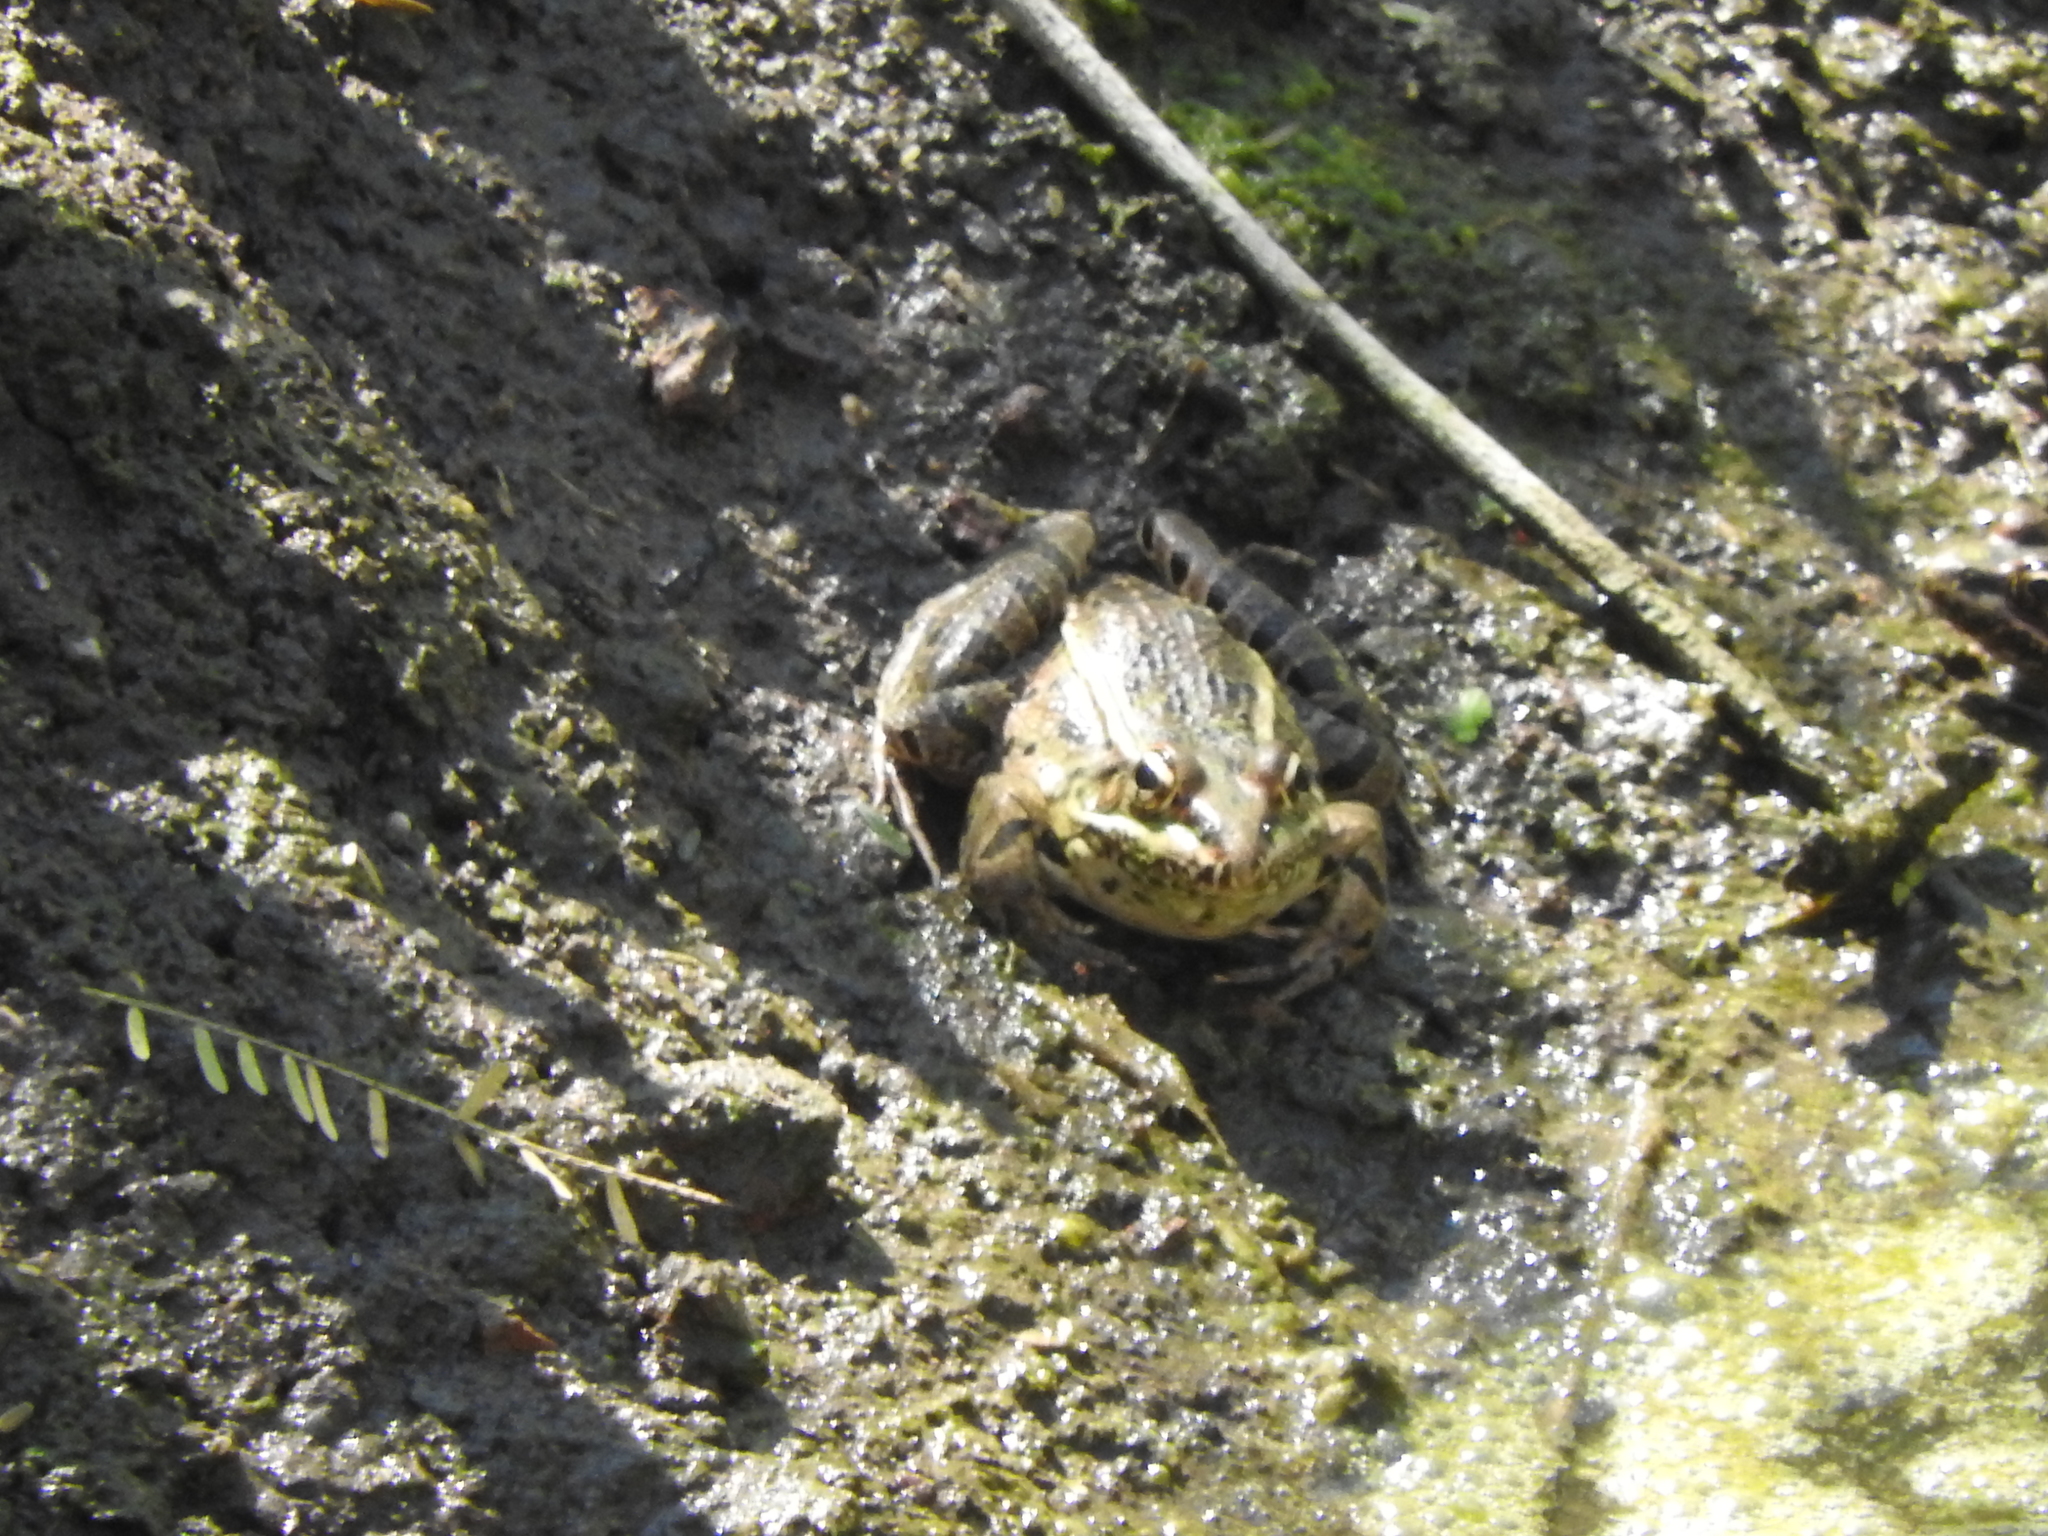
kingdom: Animalia
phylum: Chordata
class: Amphibia
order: Anura
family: Ranidae
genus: Lithobates
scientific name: Lithobates montezumae
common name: Montezuma leopard frog
